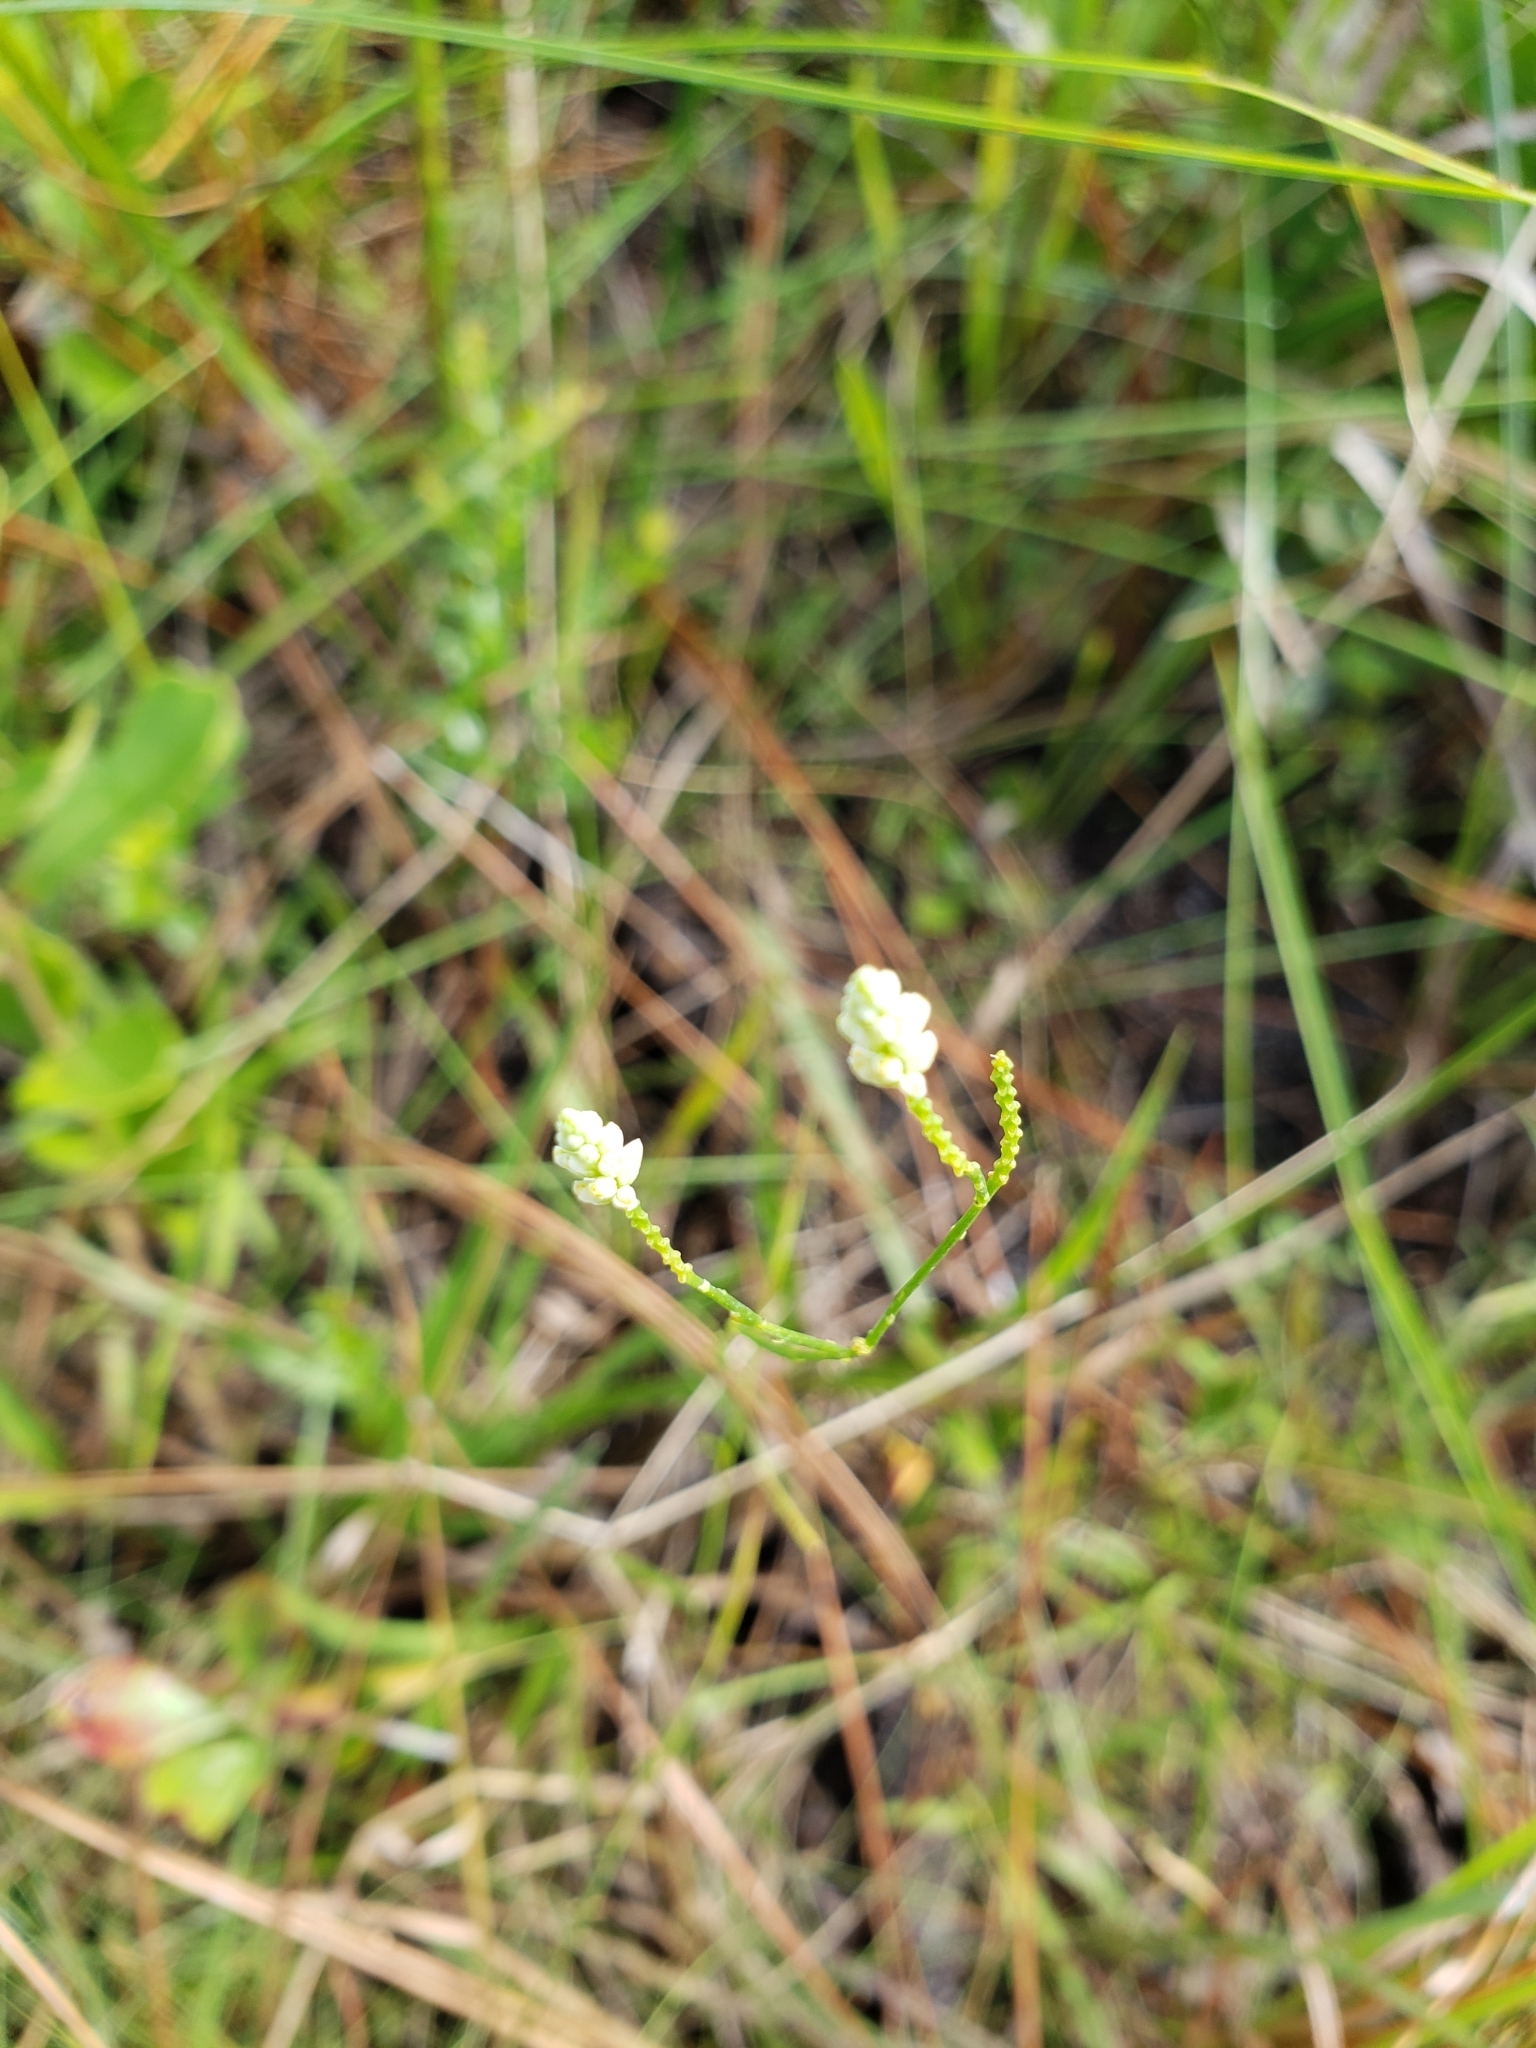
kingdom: Plantae
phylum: Tracheophyta
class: Magnoliopsida
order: Fabales
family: Polygalaceae
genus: Polygala
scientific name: Polygala setacea
